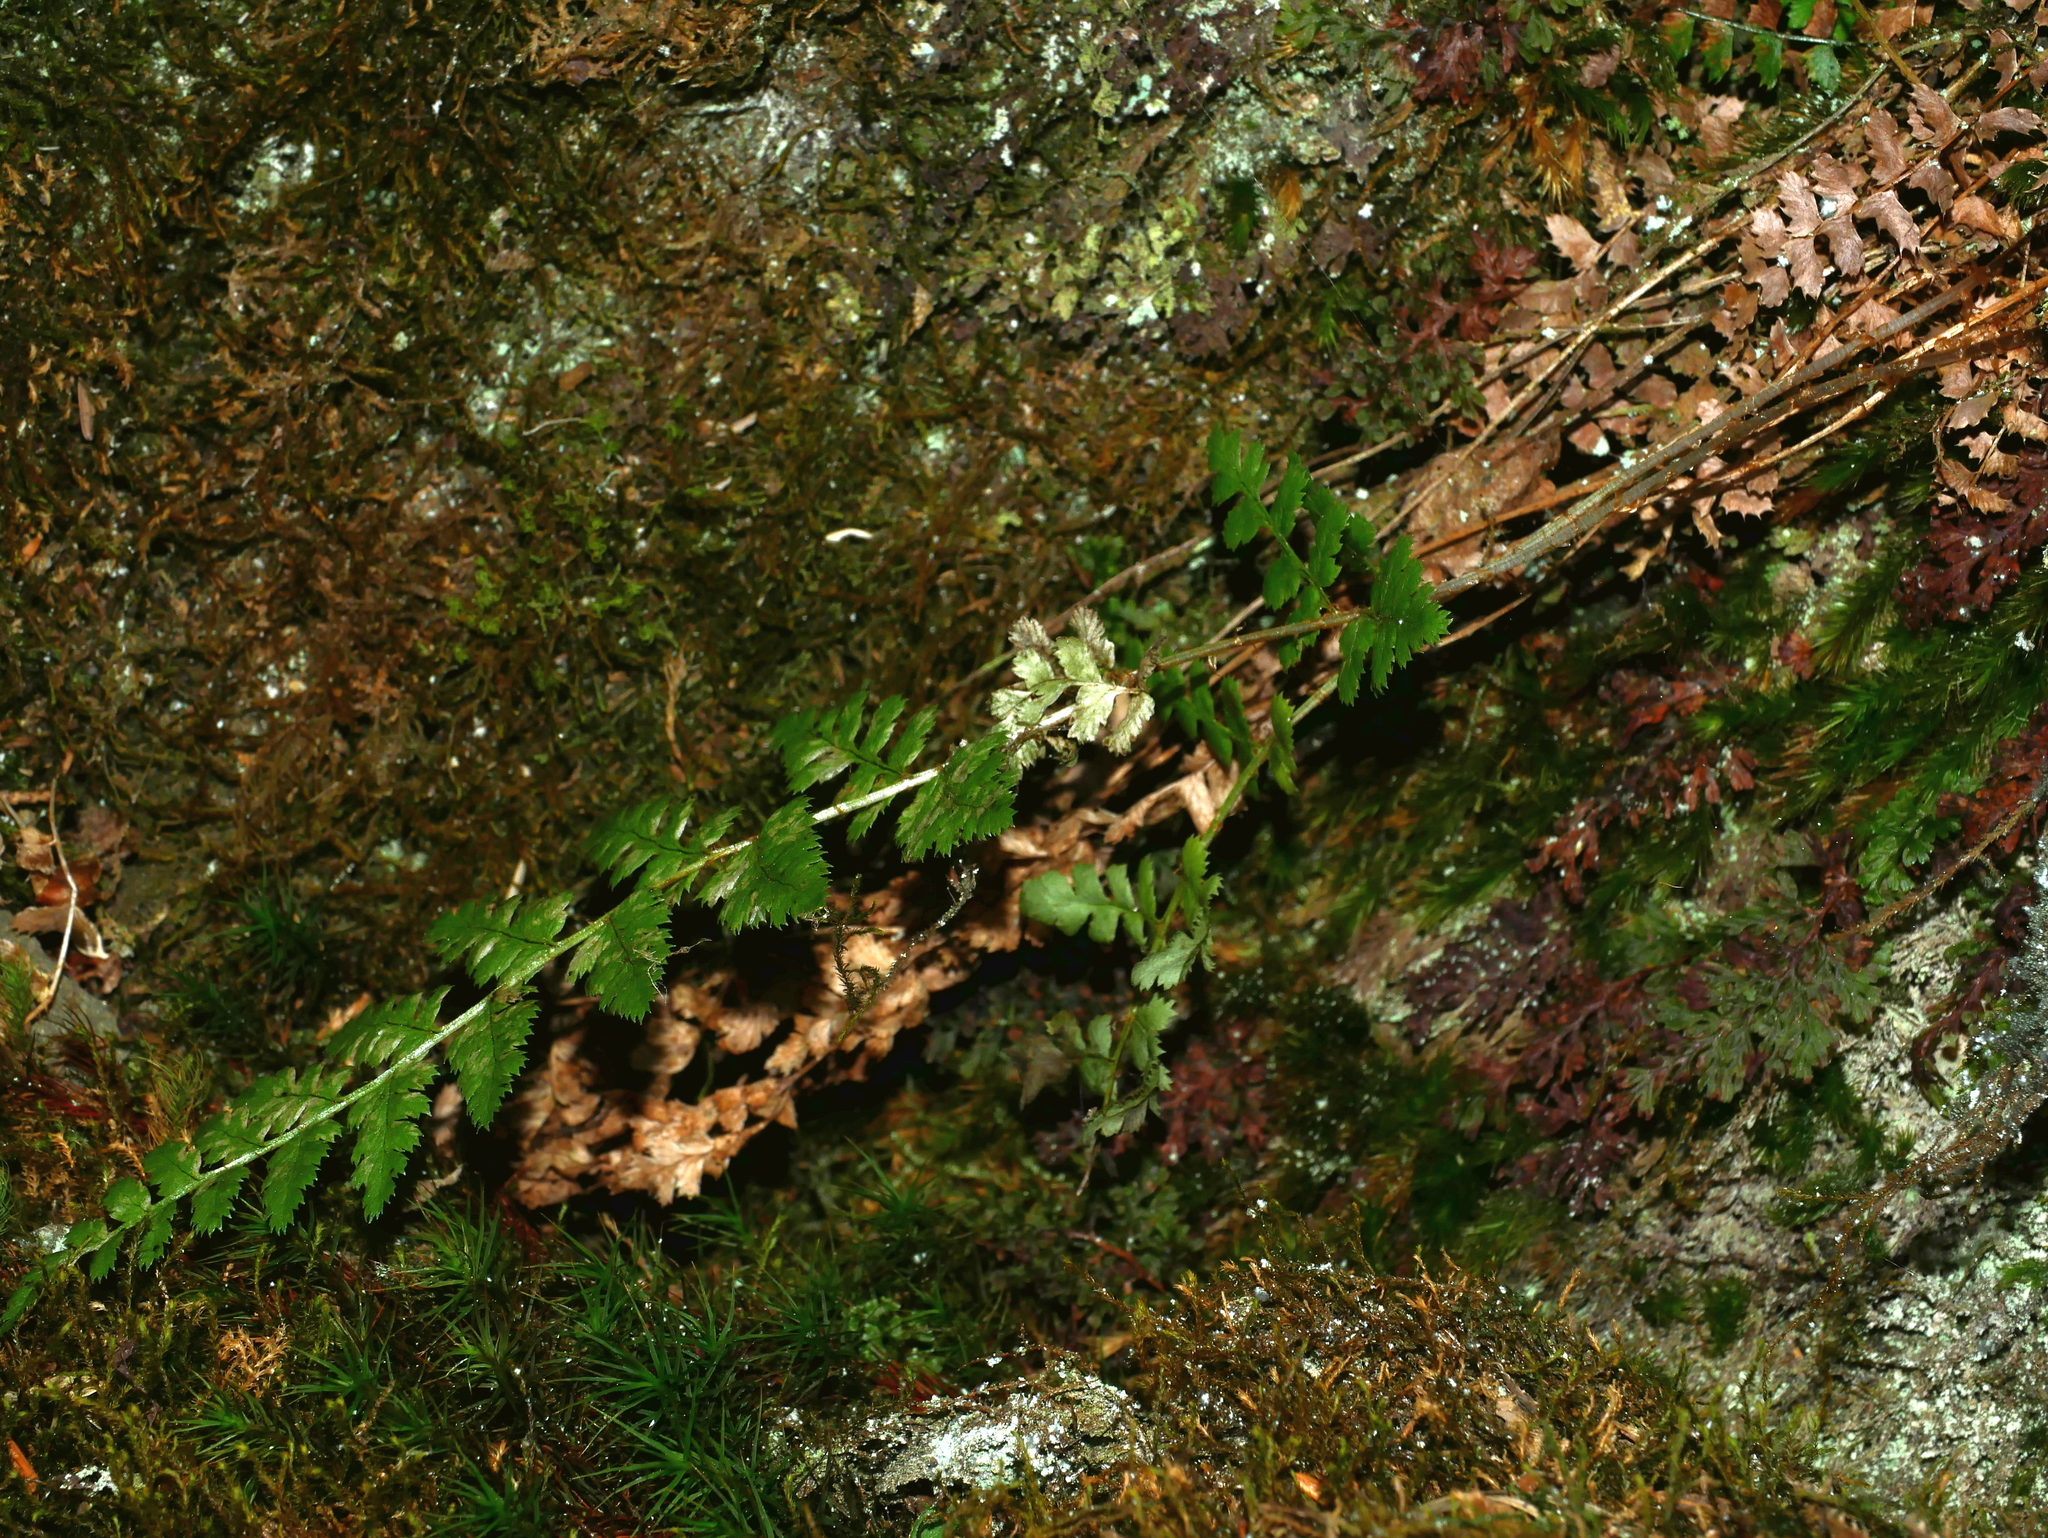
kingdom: Plantae
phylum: Tracheophyta
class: Polypodiopsida
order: Polypodiales
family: Dryopteridaceae
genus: Dryopteris
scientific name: Dryopteris serratodentata
